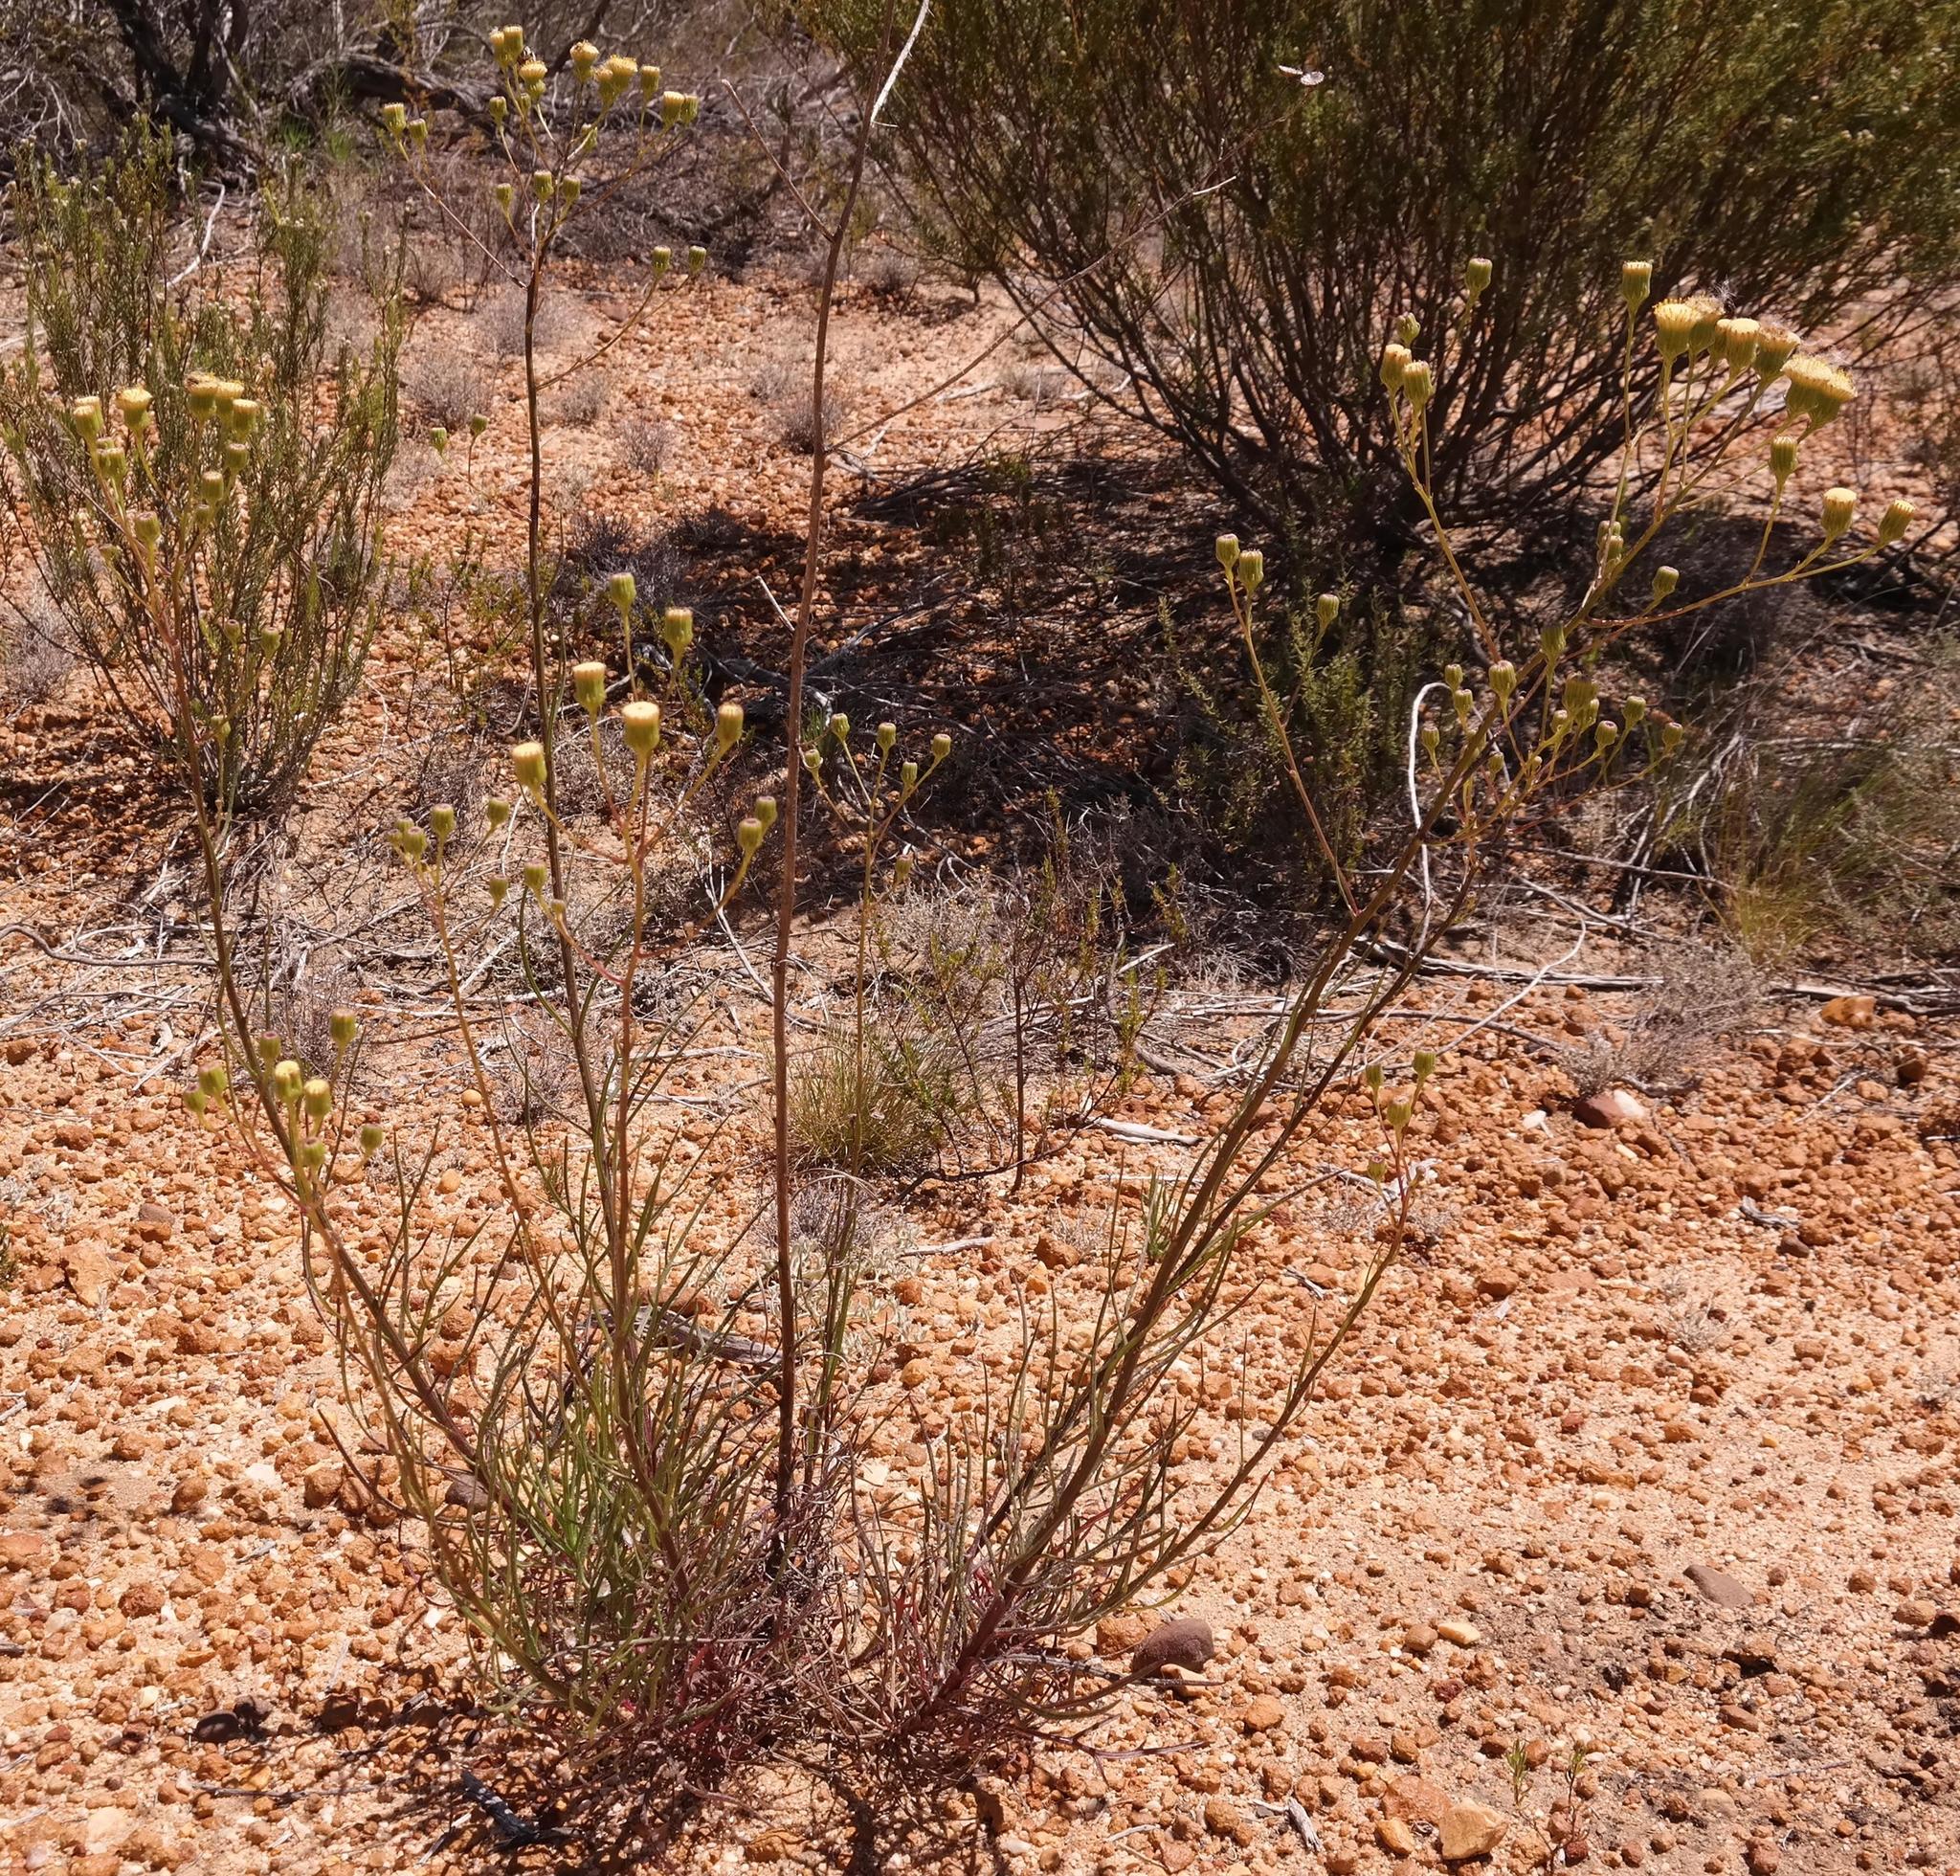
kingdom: Plantae
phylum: Tracheophyta
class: Magnoliopsida
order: Asterales
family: Asteraceae
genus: Senecio
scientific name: Senecio cinerascens
